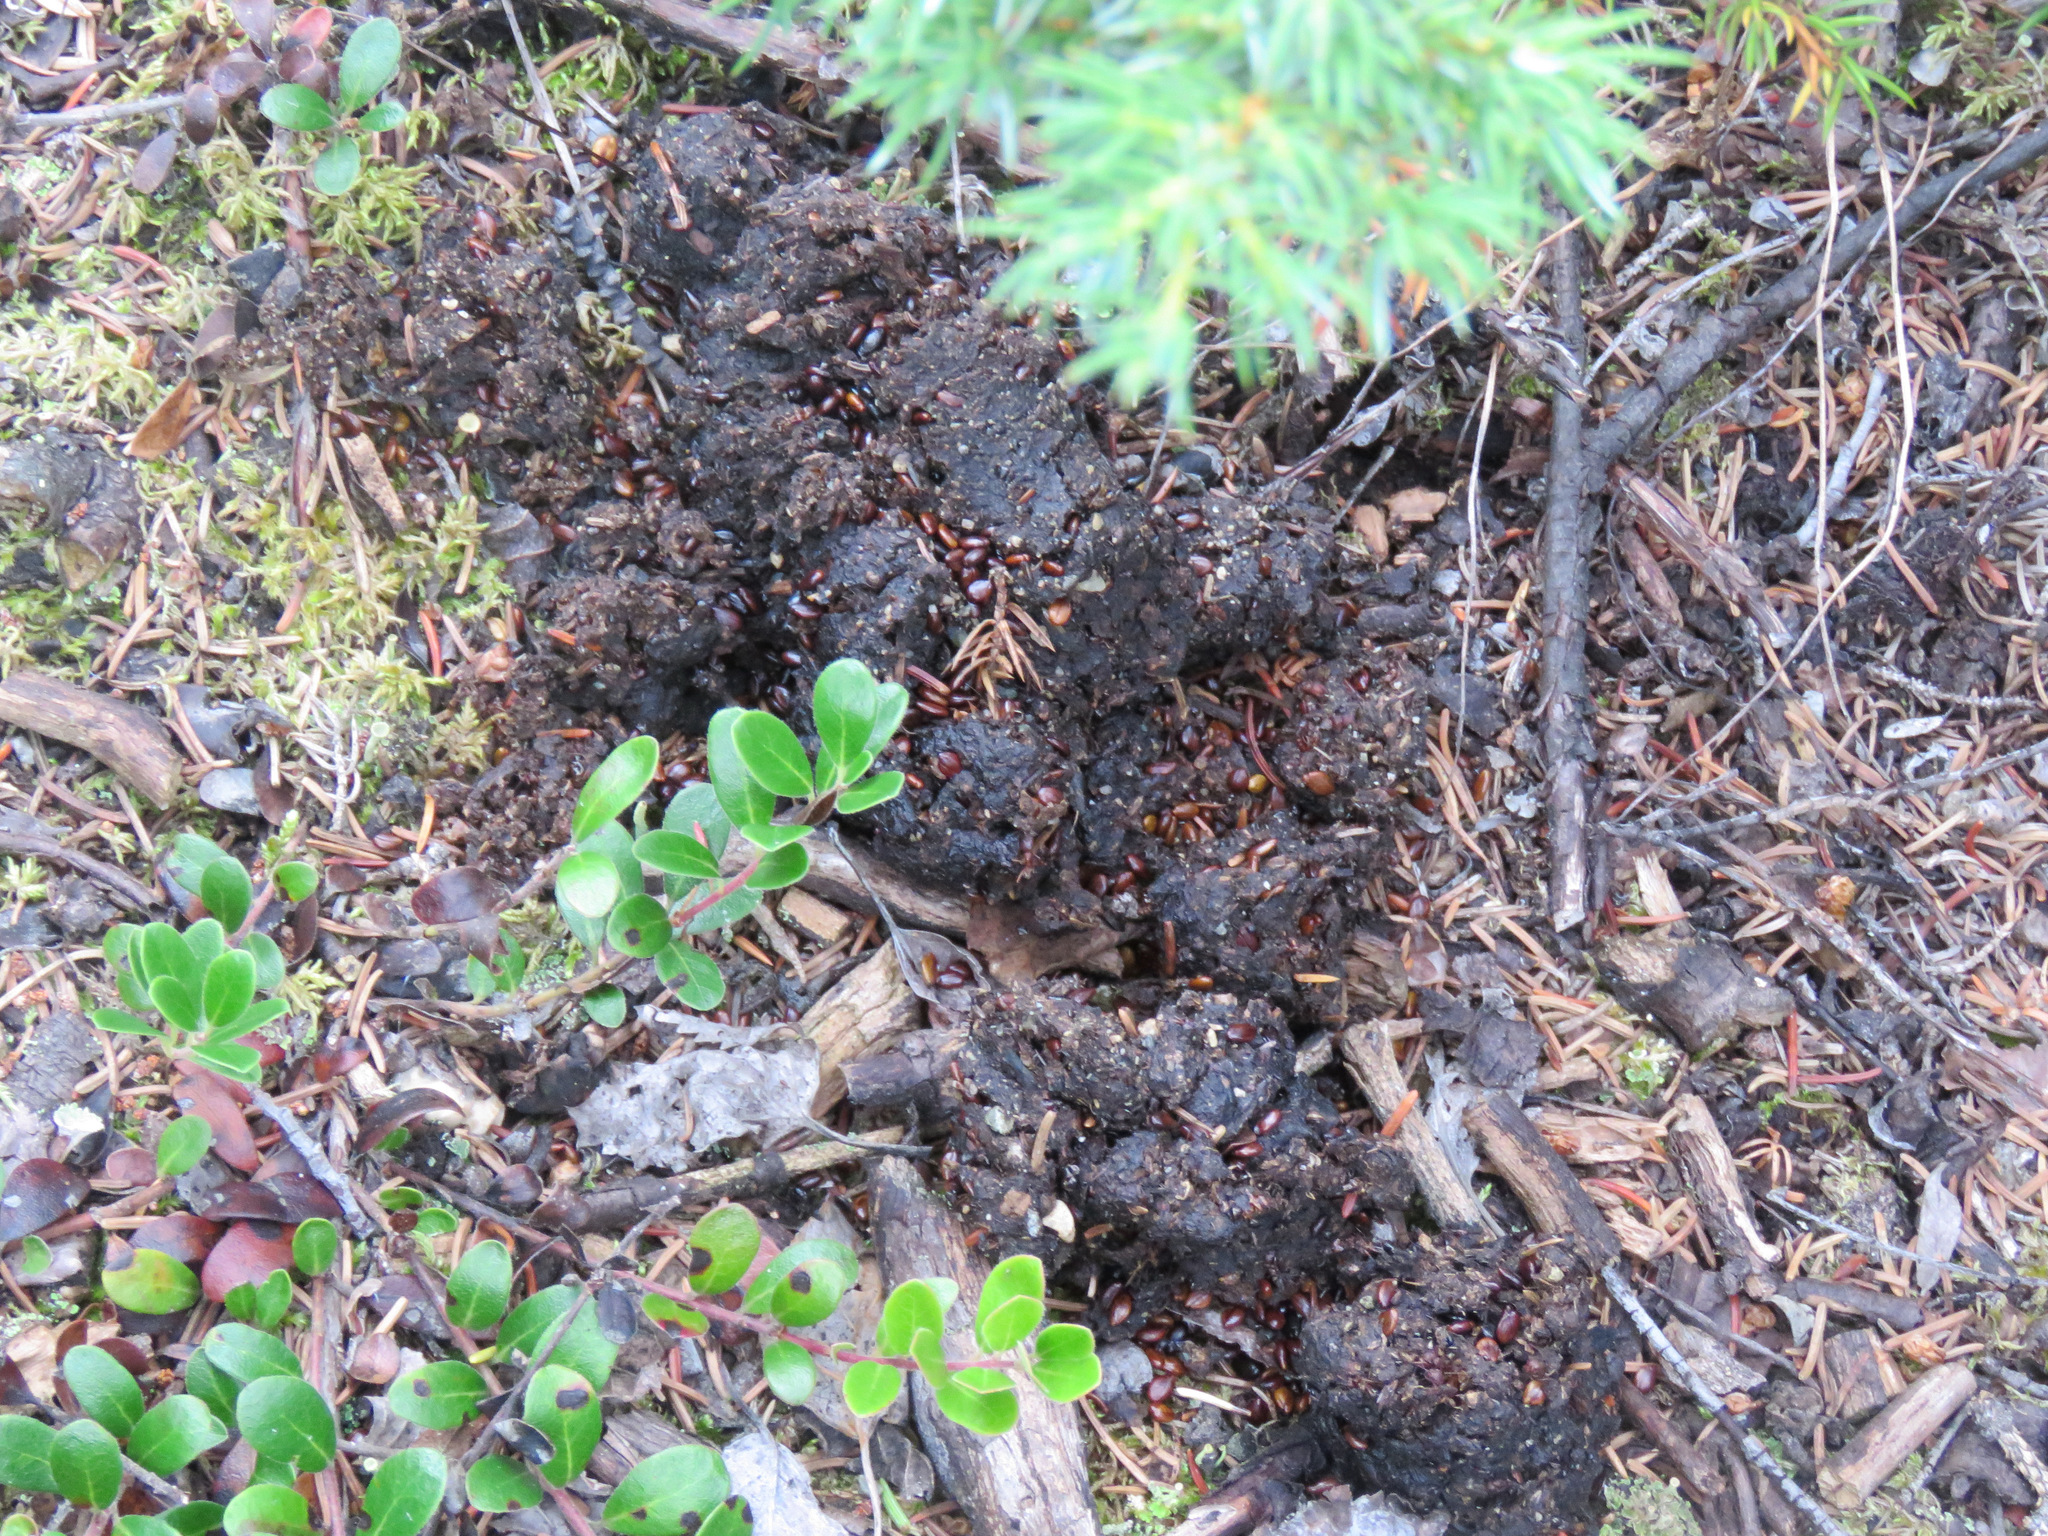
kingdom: Animalia
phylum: Chordata
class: Mammalia
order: Carnivora
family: Ursidae
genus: Ursus
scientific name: Ursus americanus
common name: American black bear
